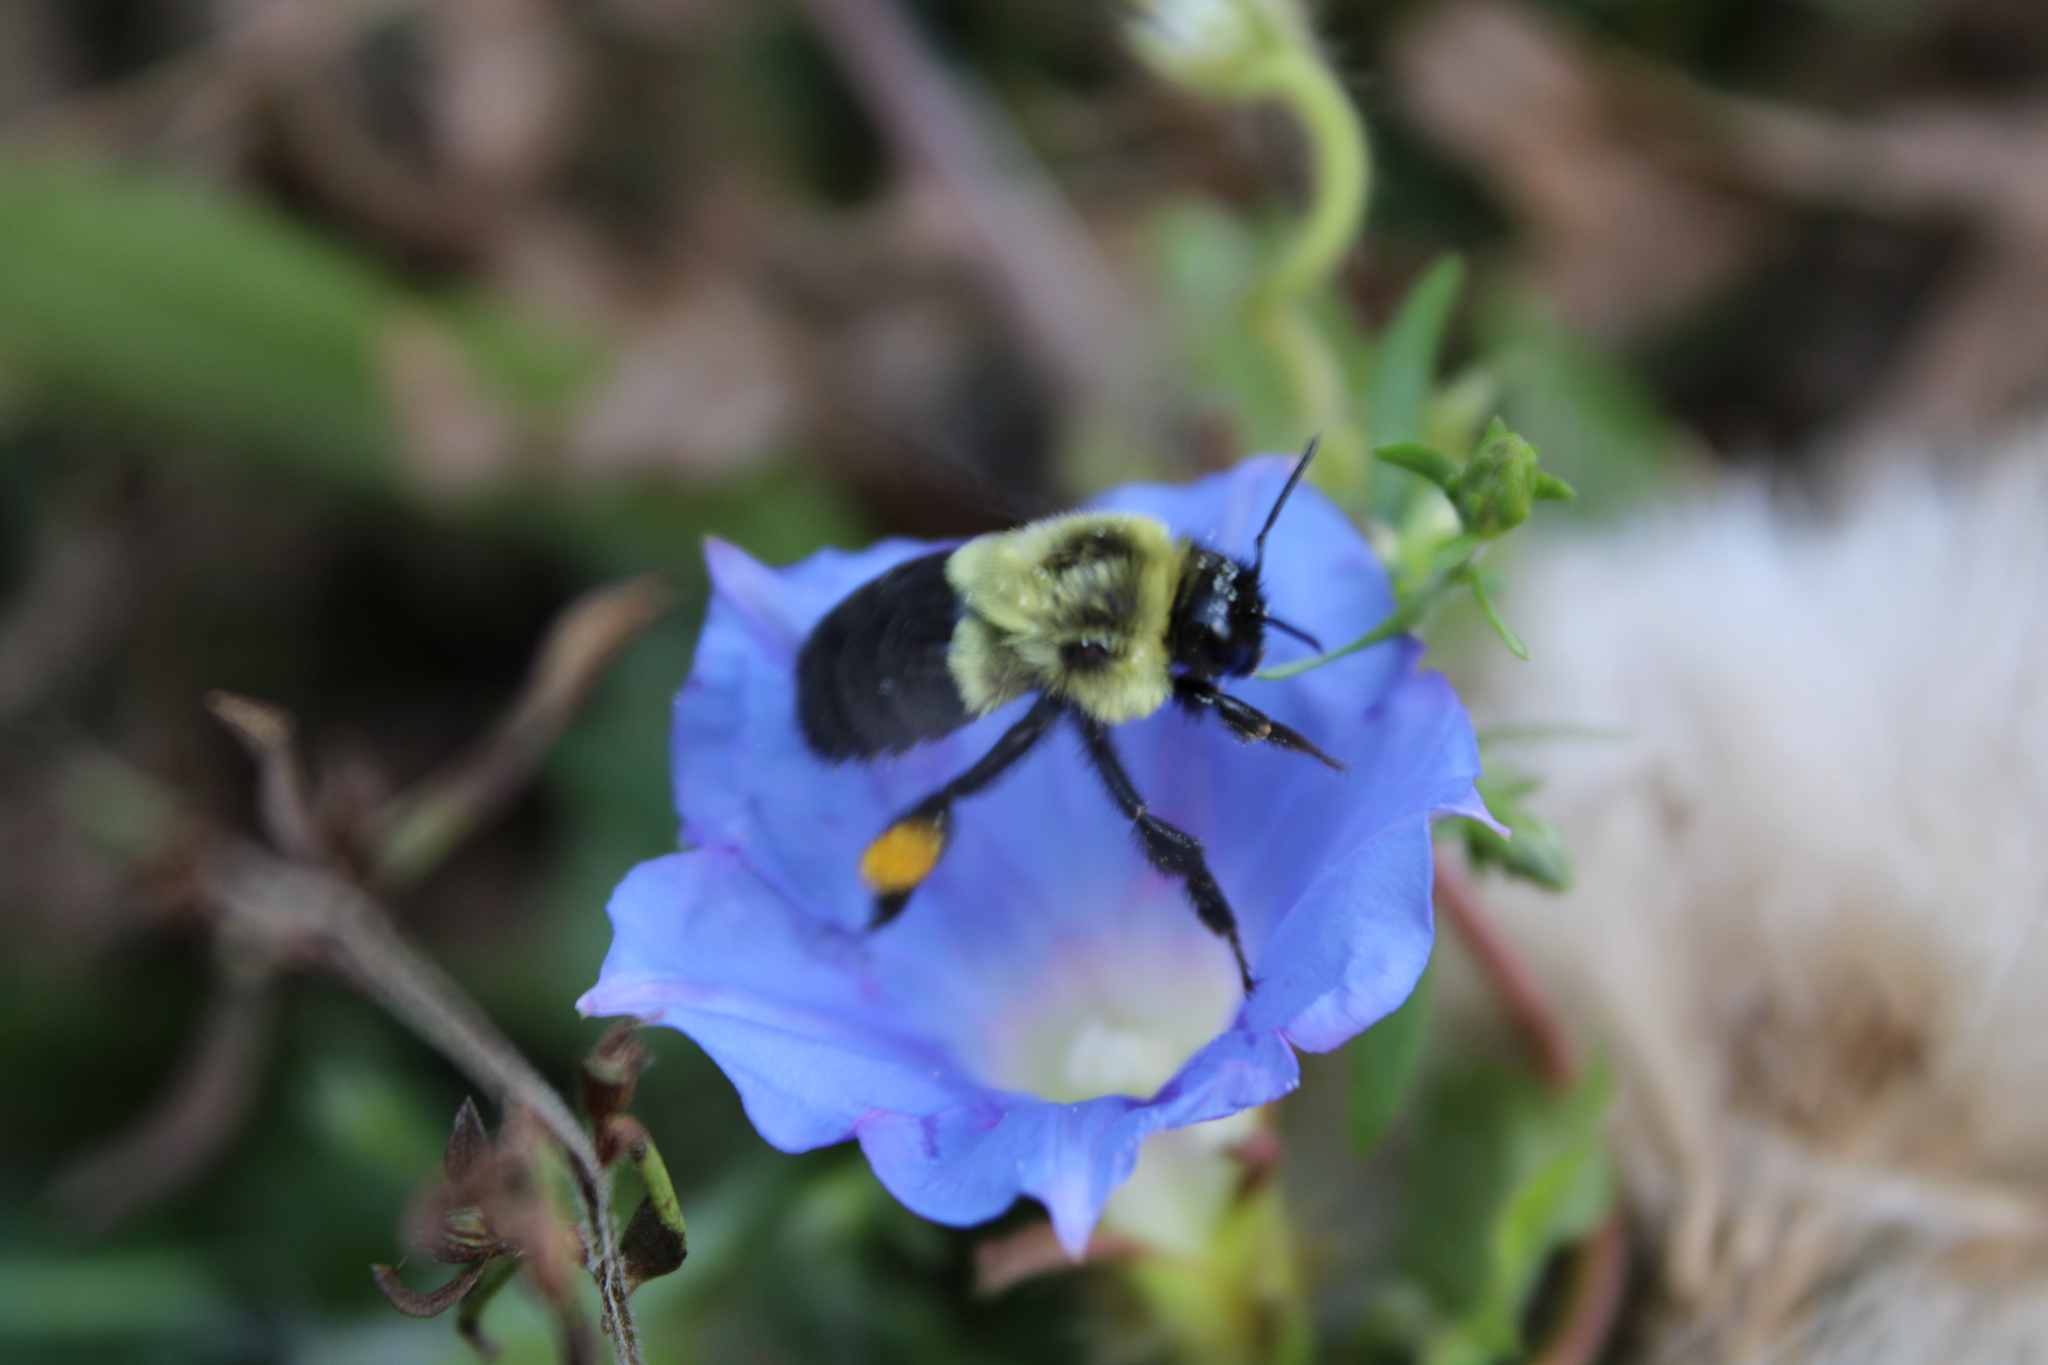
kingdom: Animalia
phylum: Arthropoda
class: Insecta
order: Hymenoptera
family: Apidae
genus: Bombus
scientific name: Bombus impatiens
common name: Common eastern bumble bee
